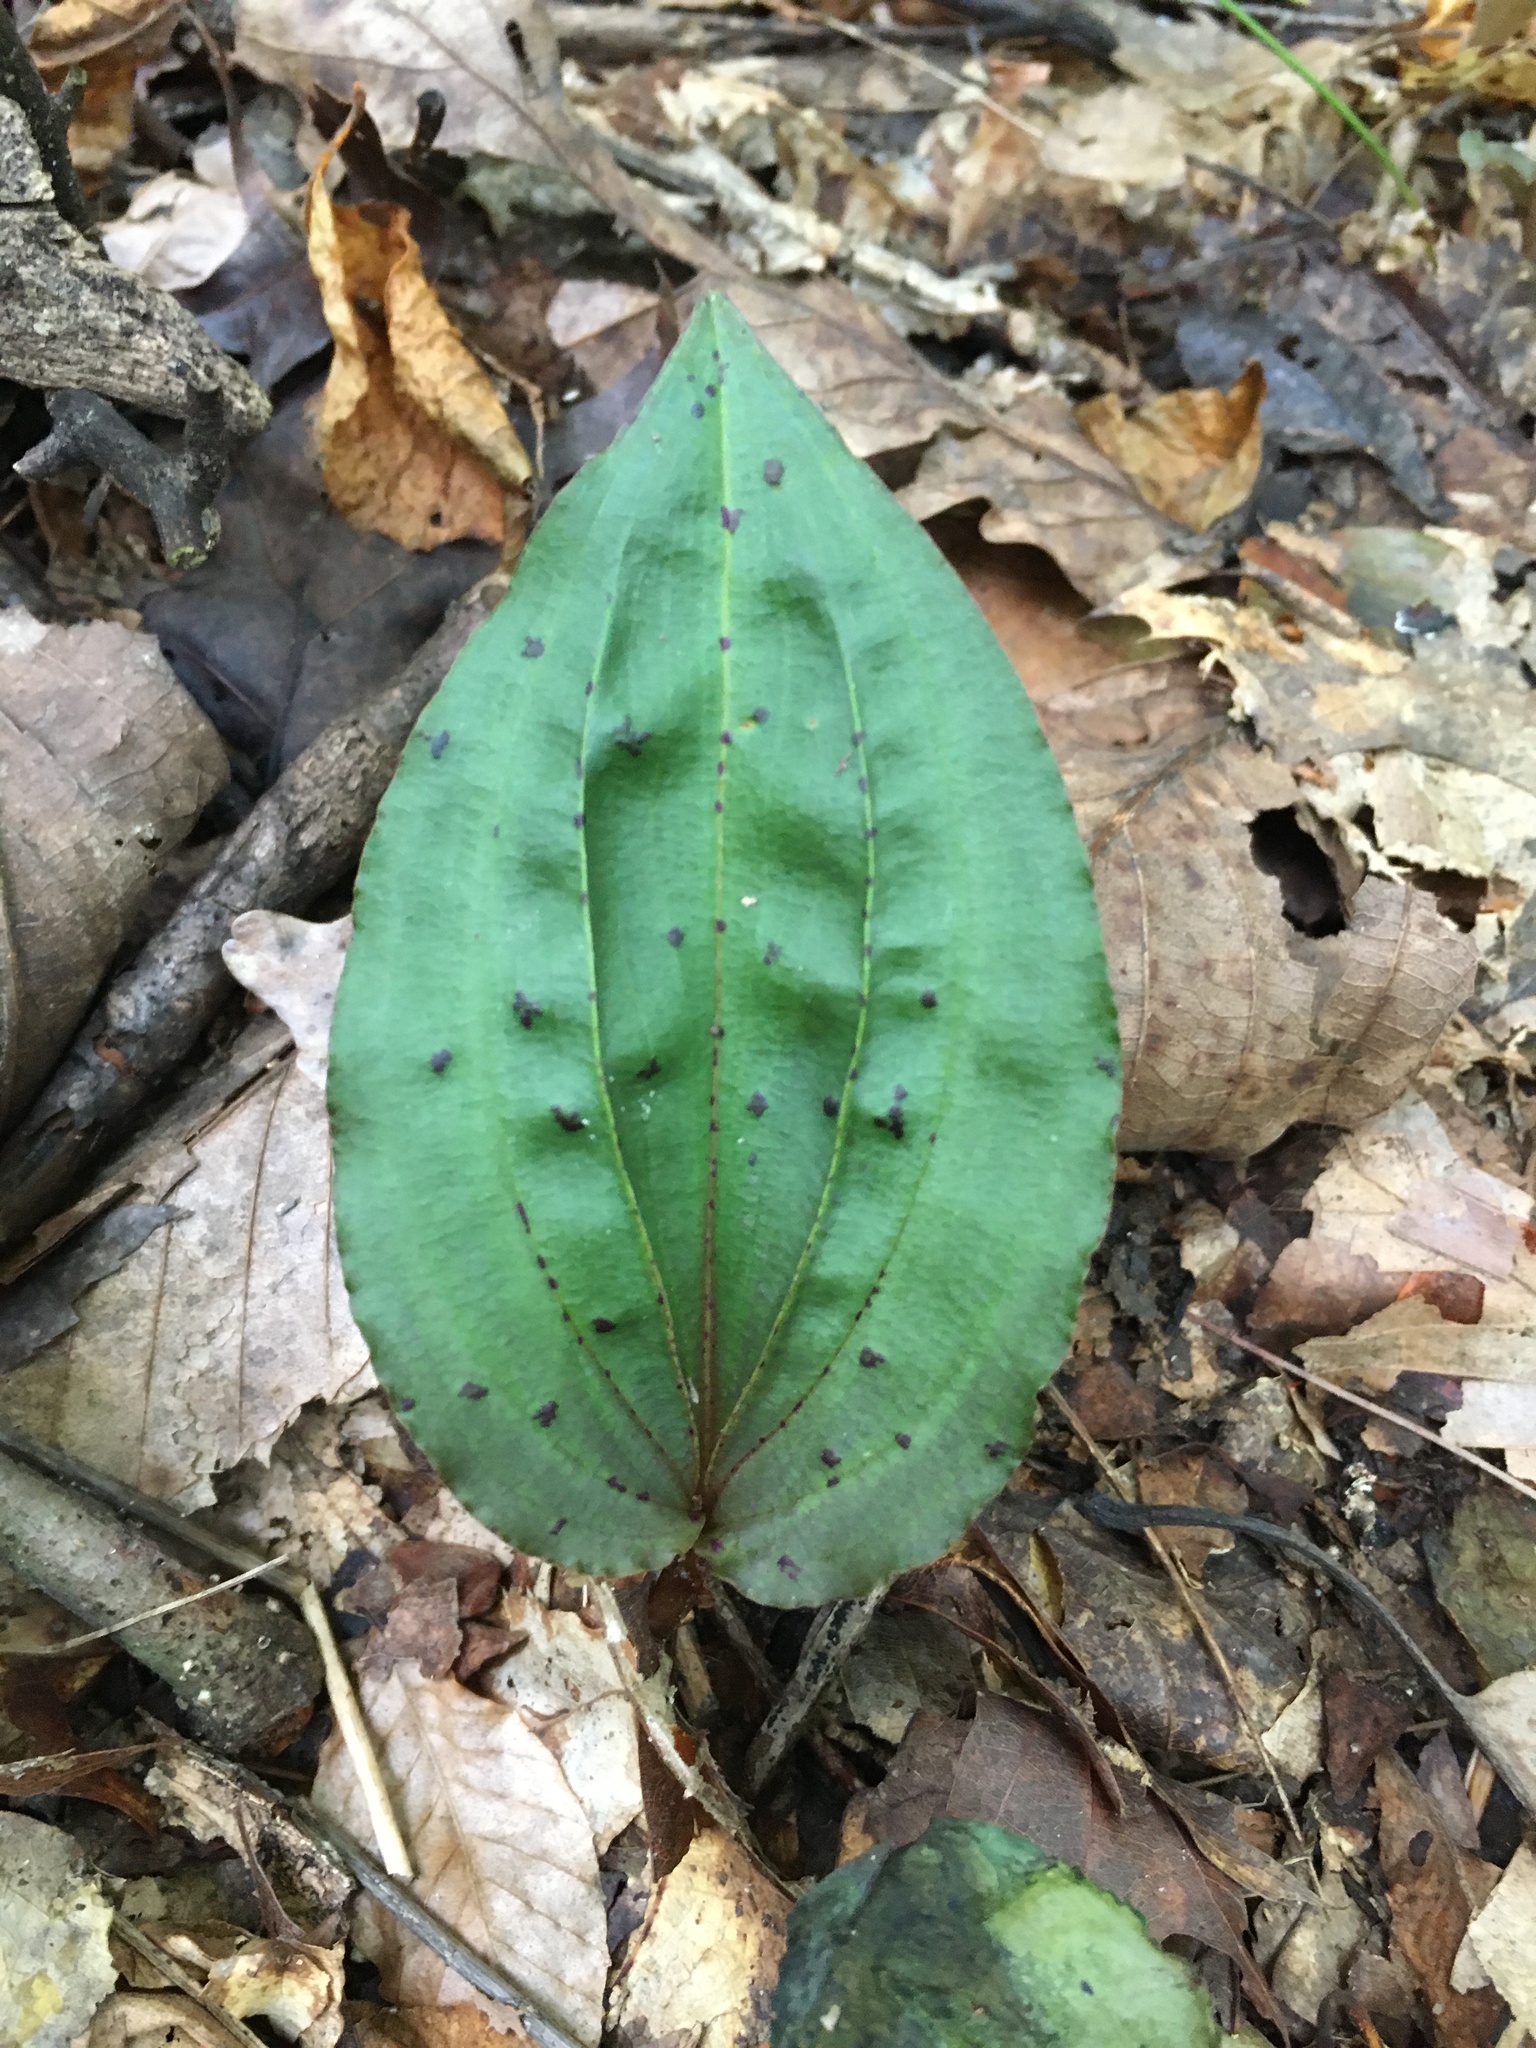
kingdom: Plantae
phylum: Tracheophyta
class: Liliopsida
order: Asparagales
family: Orchidaceae
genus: Tipularia
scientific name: Tipularia discolor
